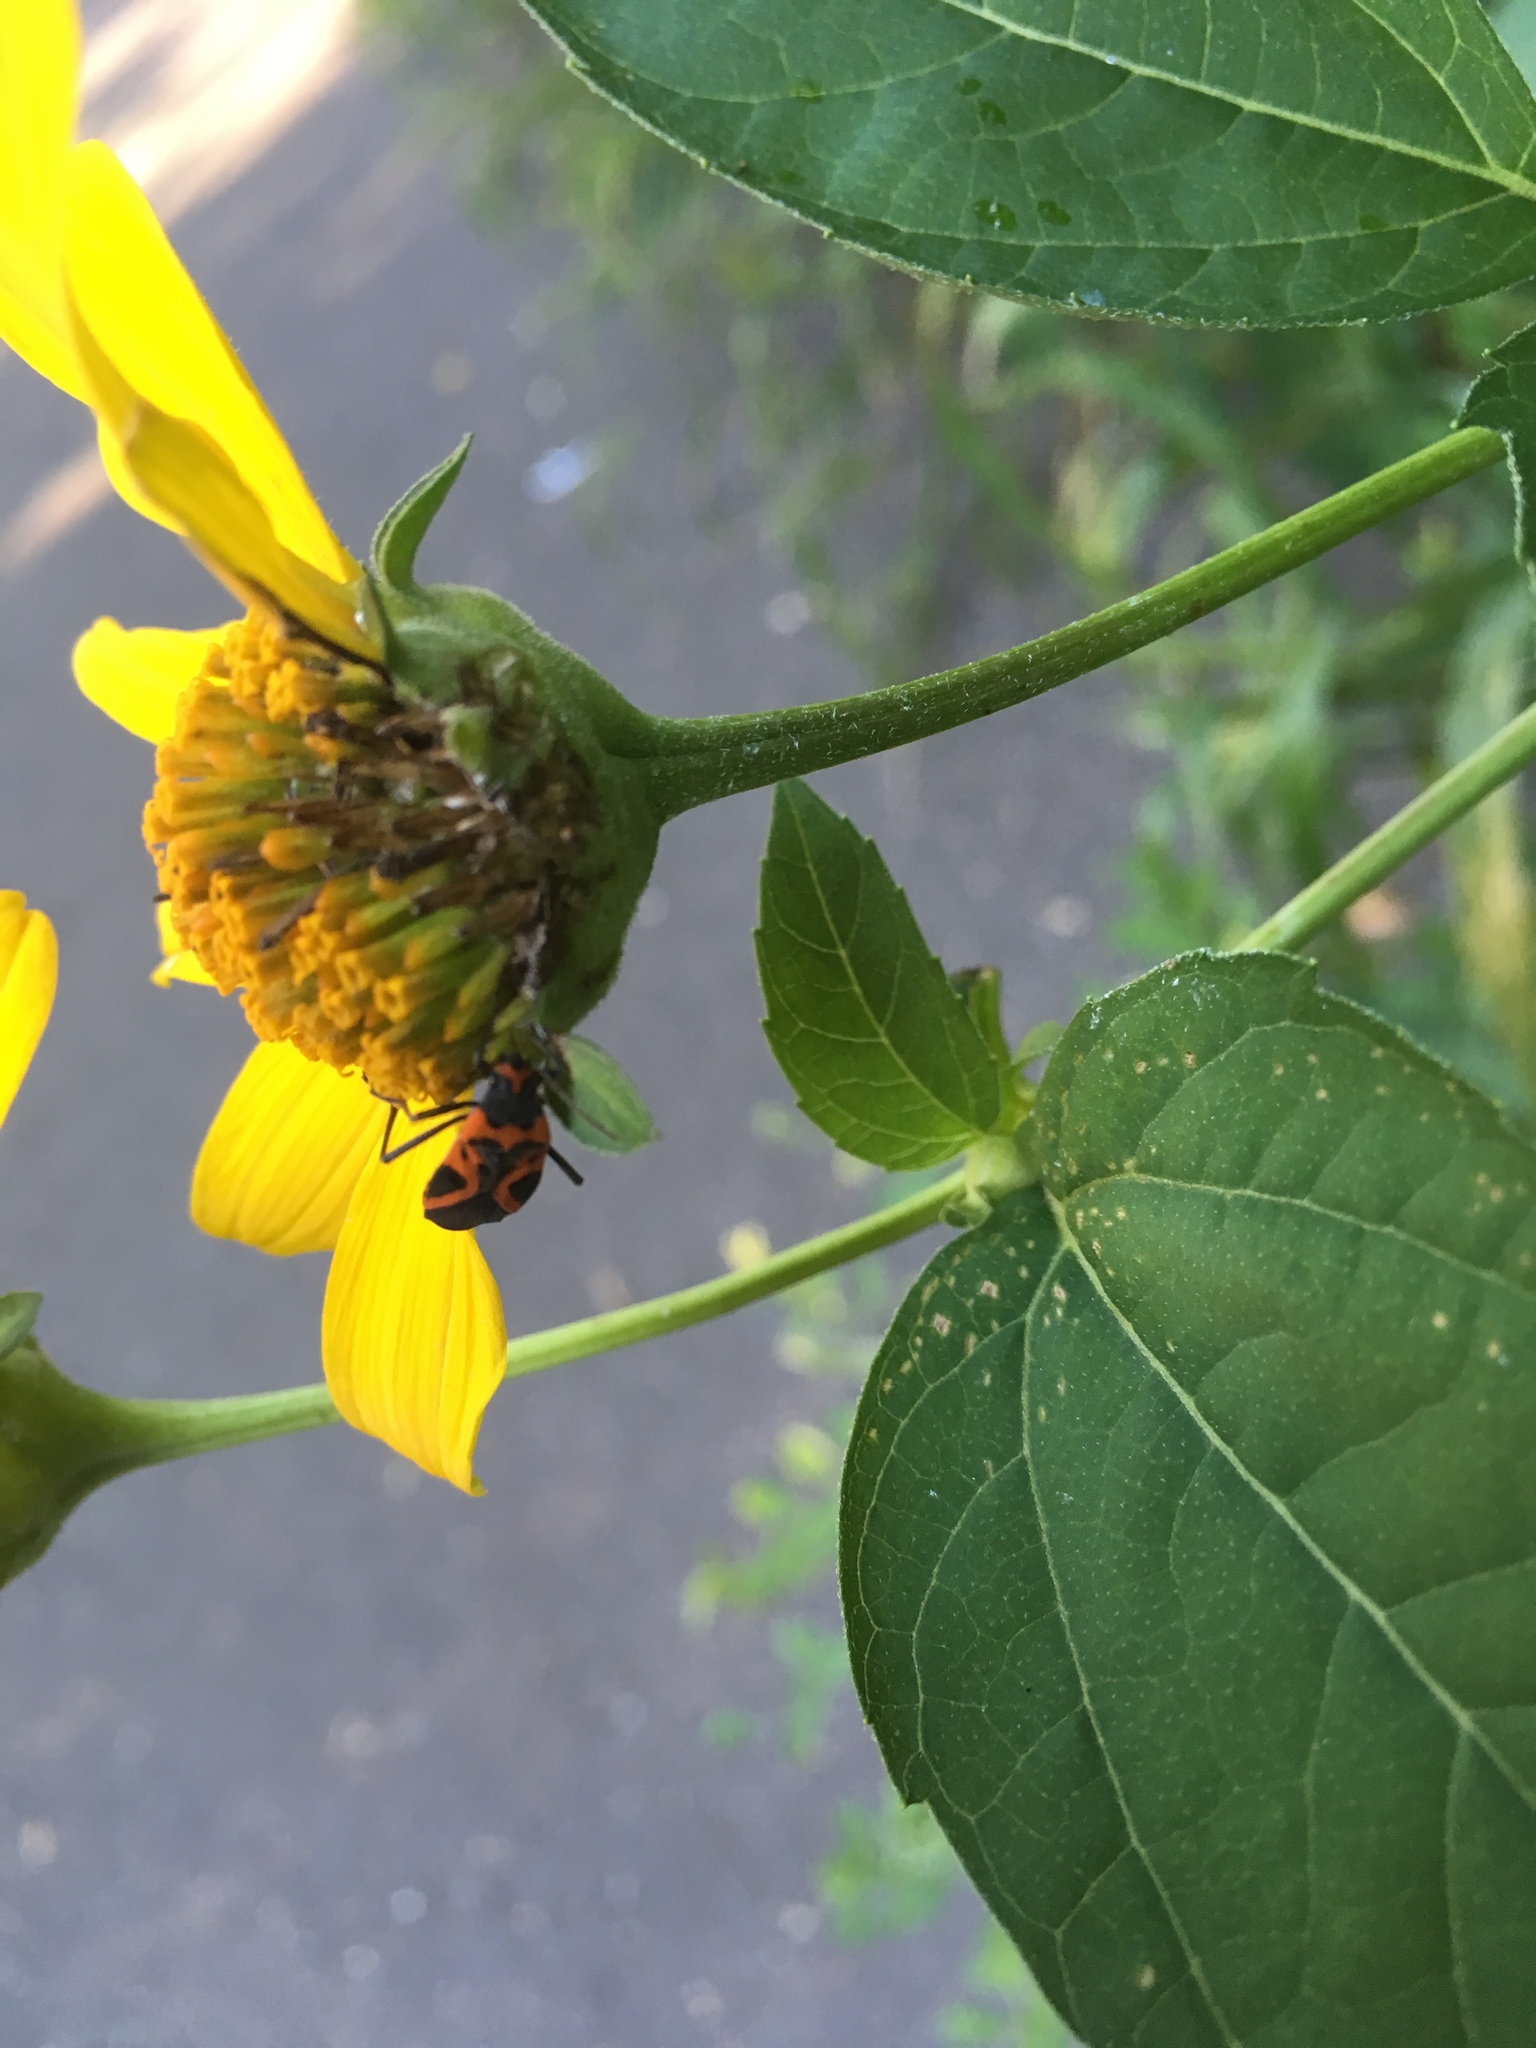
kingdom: Animalia
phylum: Arthropoda
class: Insecta
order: Hemiptera
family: Lygaeidae
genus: Lygaeus
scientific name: Lygaeus turcicus
